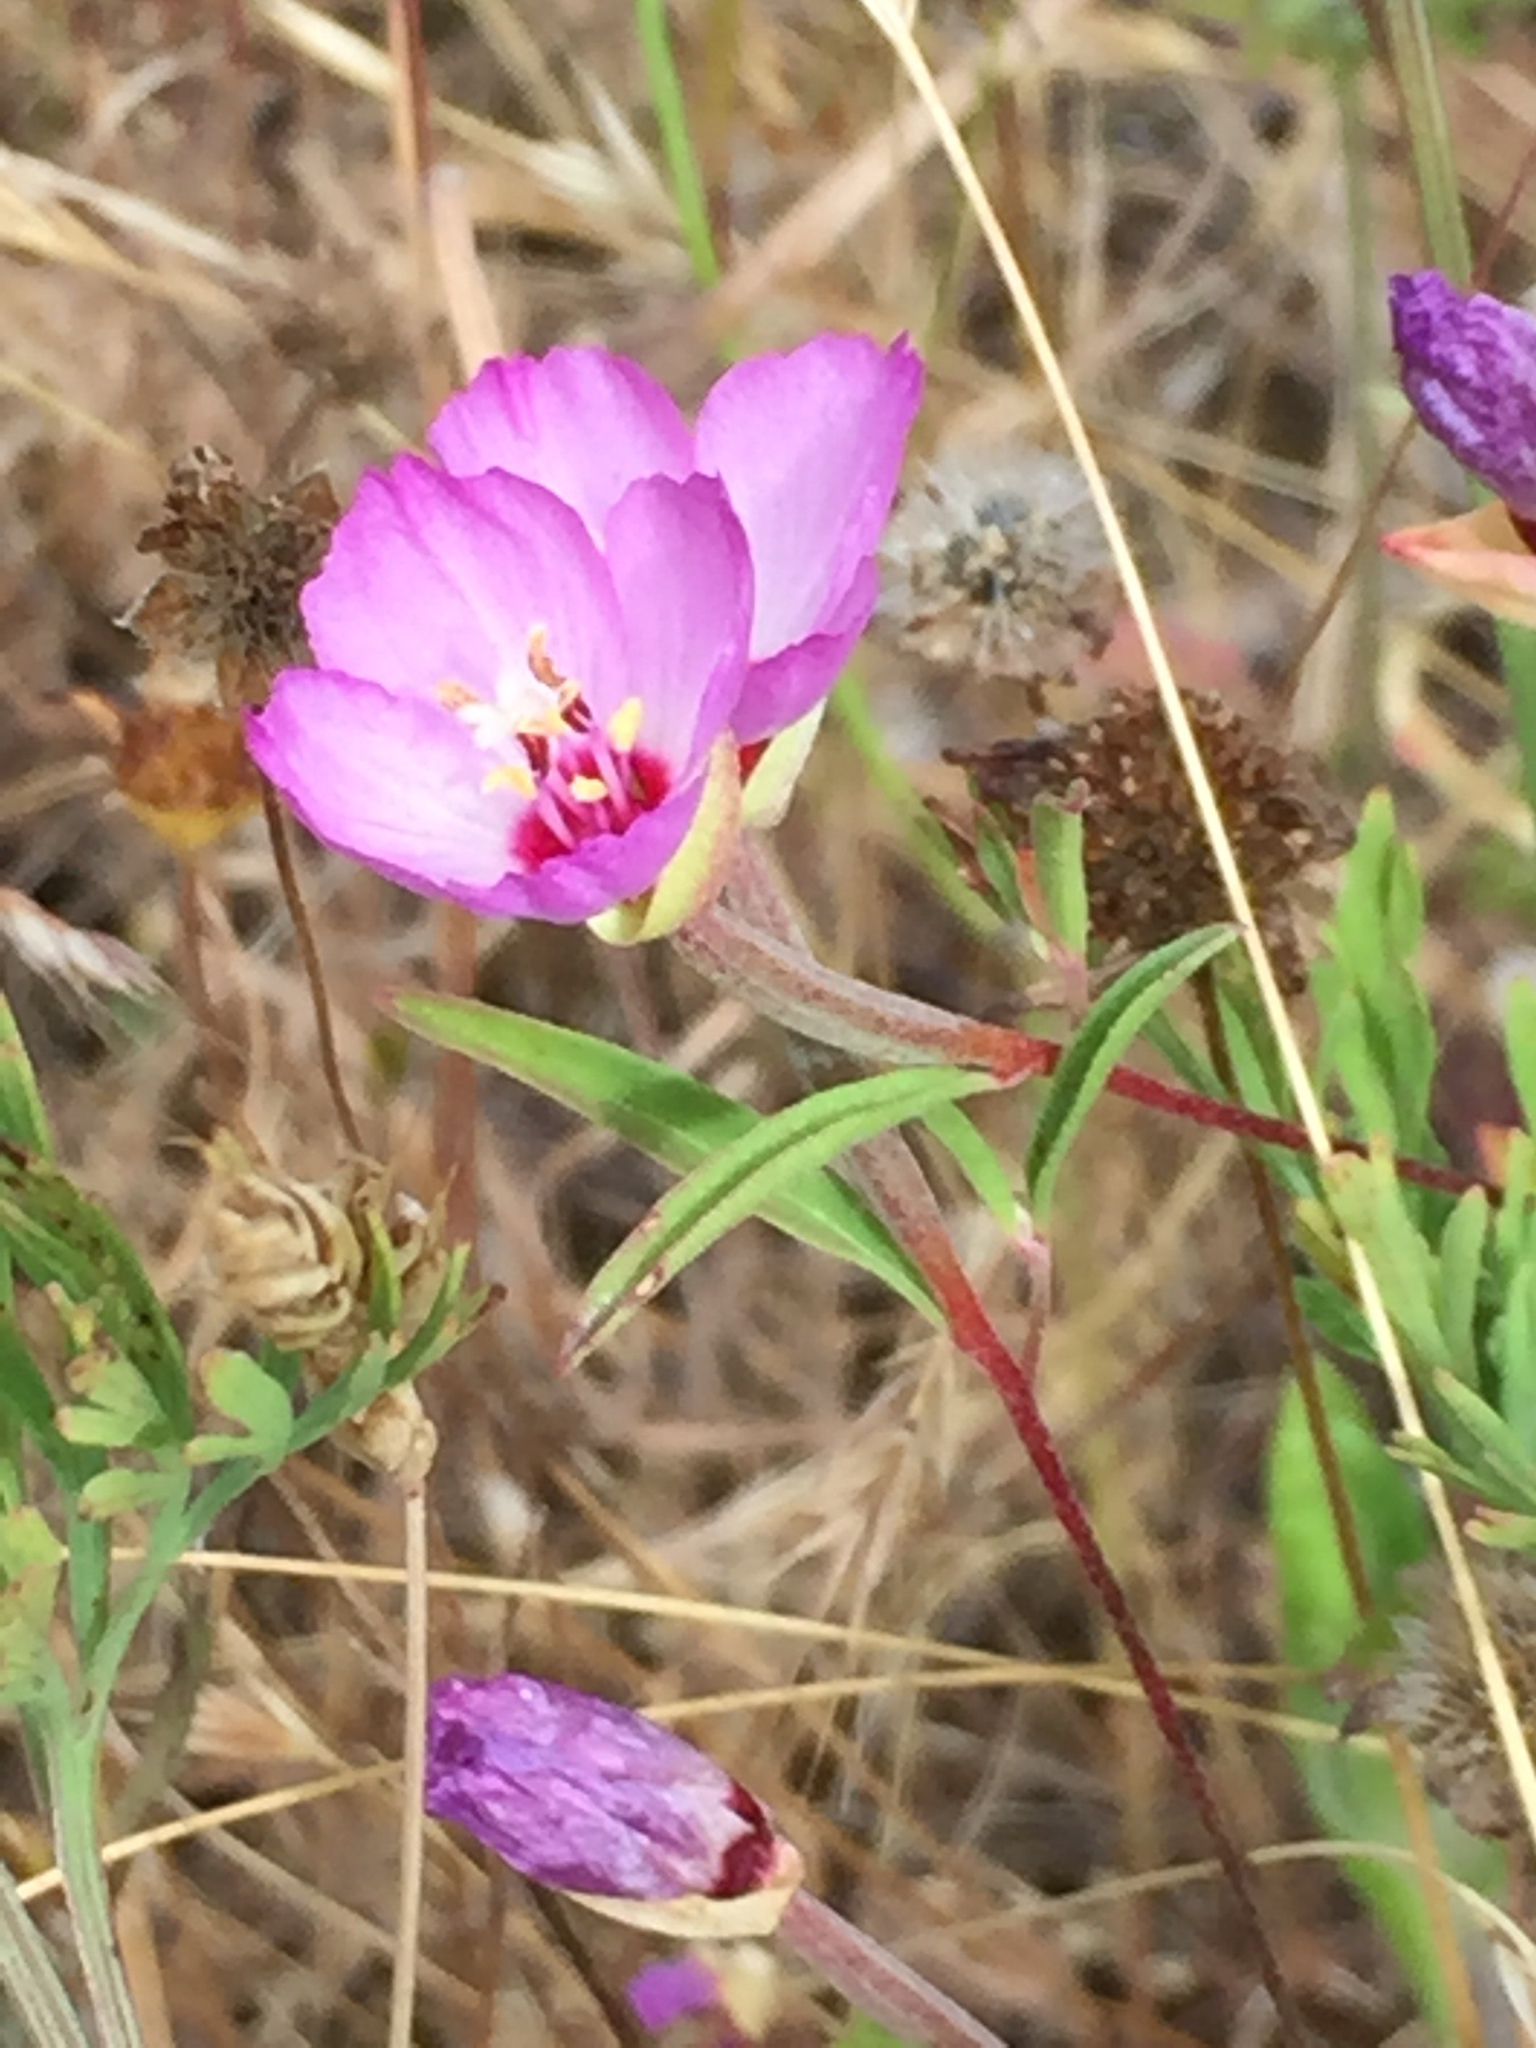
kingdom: Plantae
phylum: Tracheophyta
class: Magnoliopsida
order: Myrtales
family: Onagraceae
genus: Clarkia
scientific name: Clarkia franciscana
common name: Presidio clarkia
